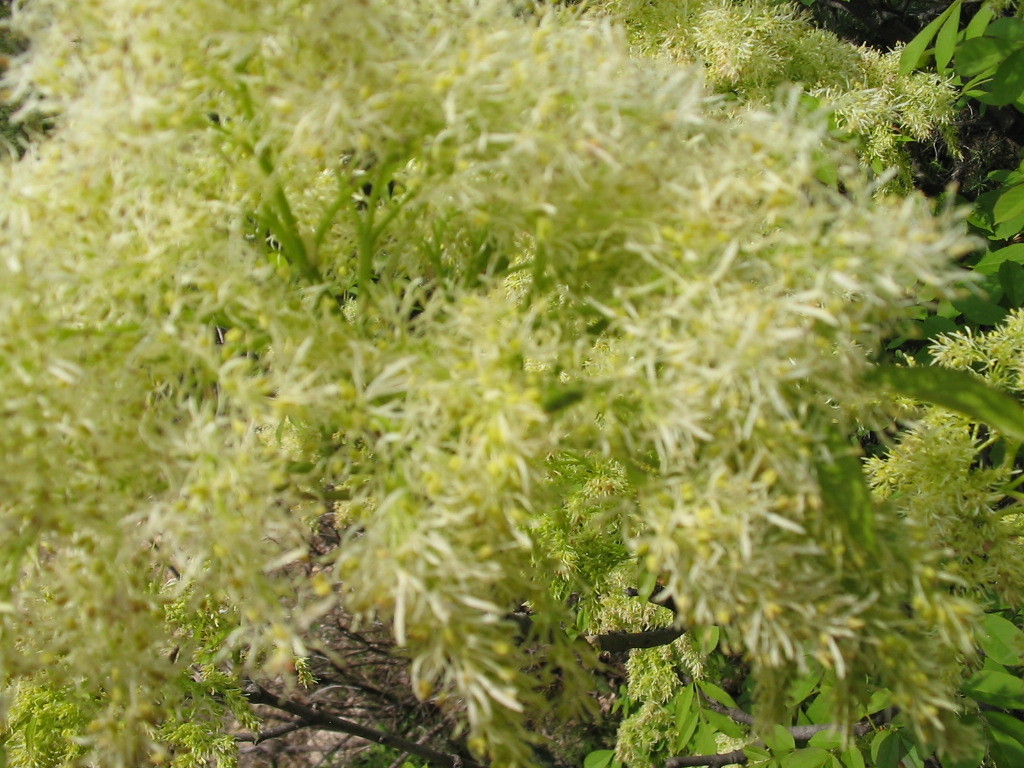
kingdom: Plantae
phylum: Tracheophyta
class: Magnoliopsida
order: Lamiales
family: Oleaceae
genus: Fraxinus
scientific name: Fraxinus ornus
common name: Manna ash
